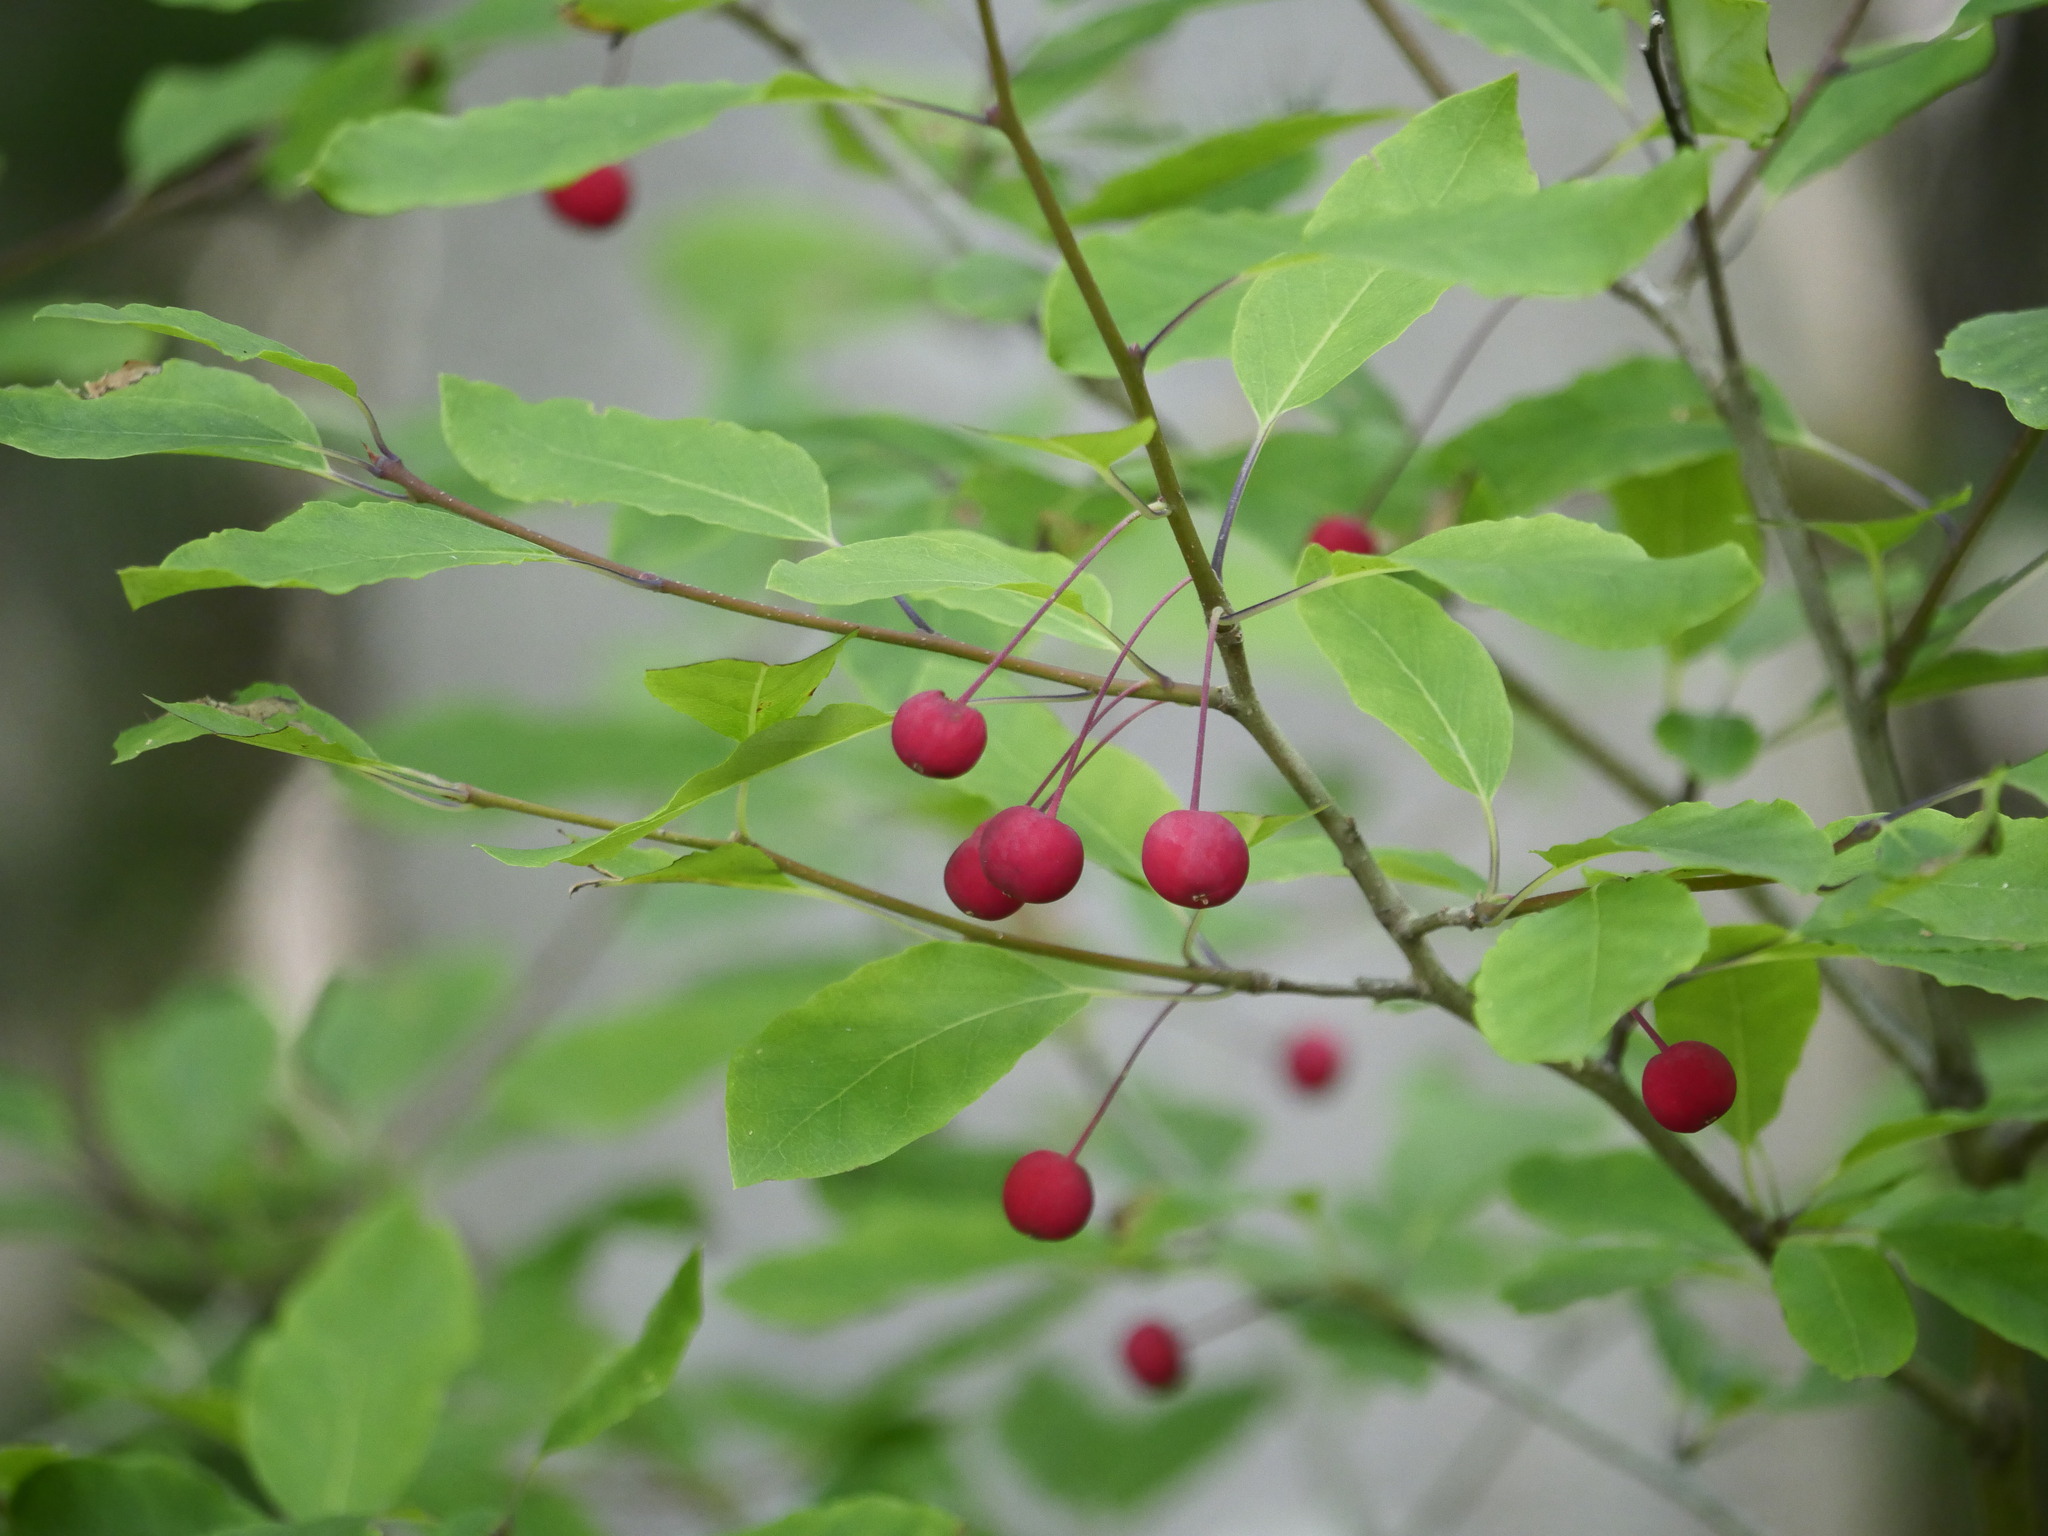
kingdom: Plantae
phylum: Tracheophyta
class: Magnoliopsida
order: Aquifoliales
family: Aquifoliaceae
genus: Ilex
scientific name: Ilex mucronata
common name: Catberry
